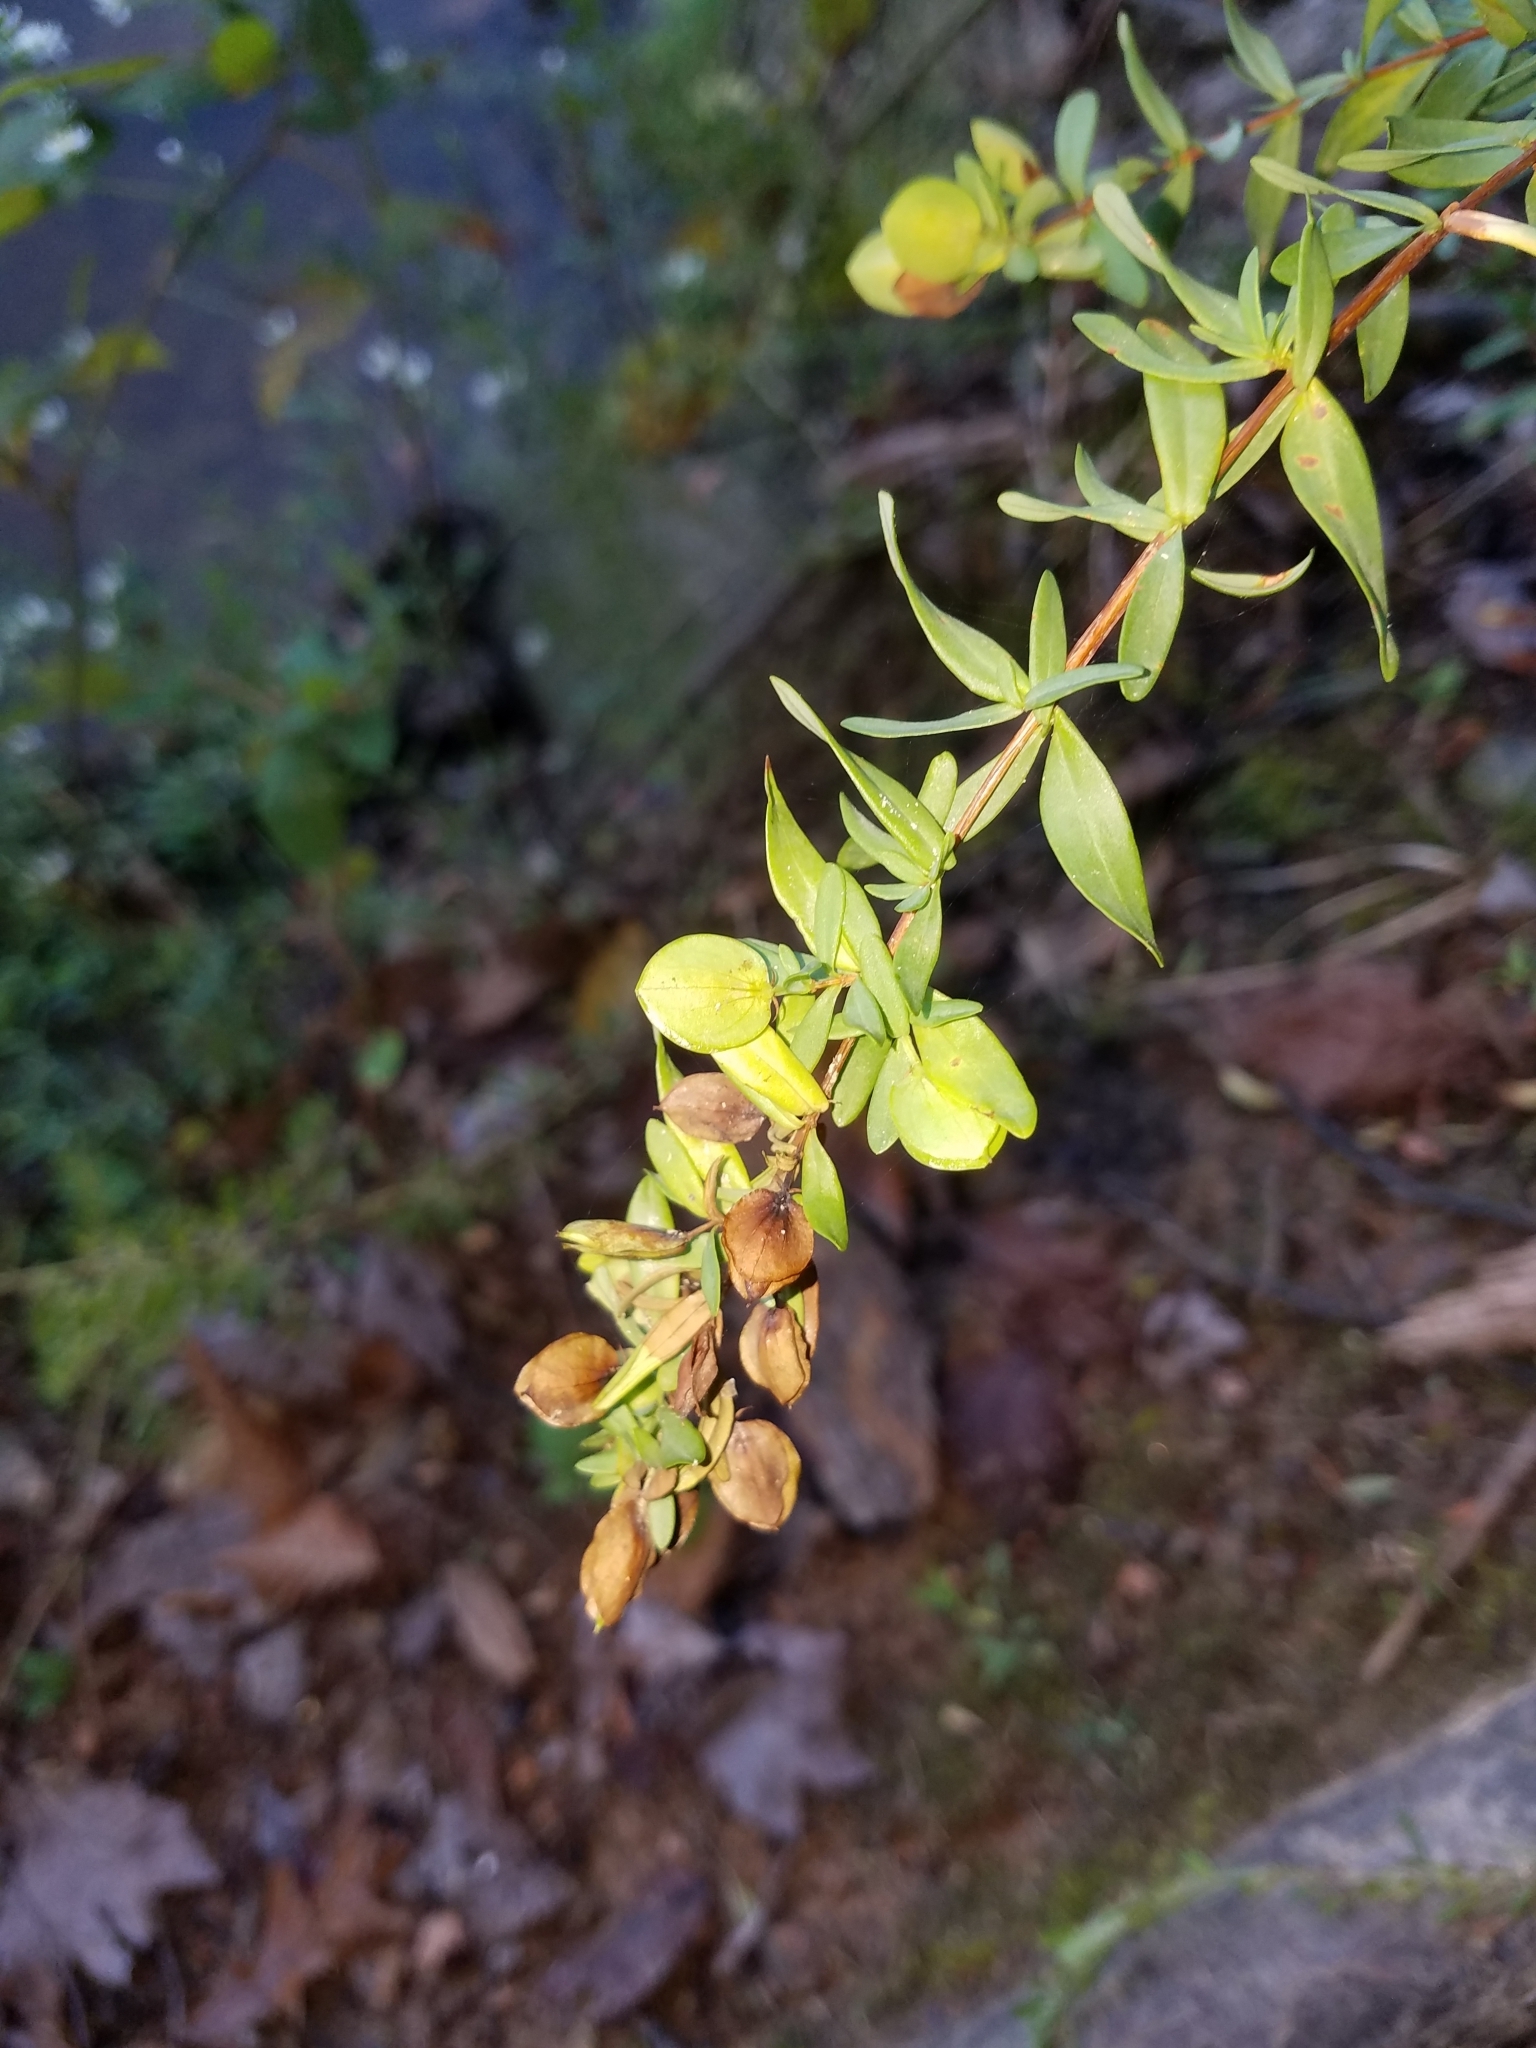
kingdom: Plantae
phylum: Tracheophyta
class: Magnoliopsida
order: Malpighiales
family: Hypericaceae
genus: Hypericum
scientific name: Hypericum hypericoides
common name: St. andrew's cross
